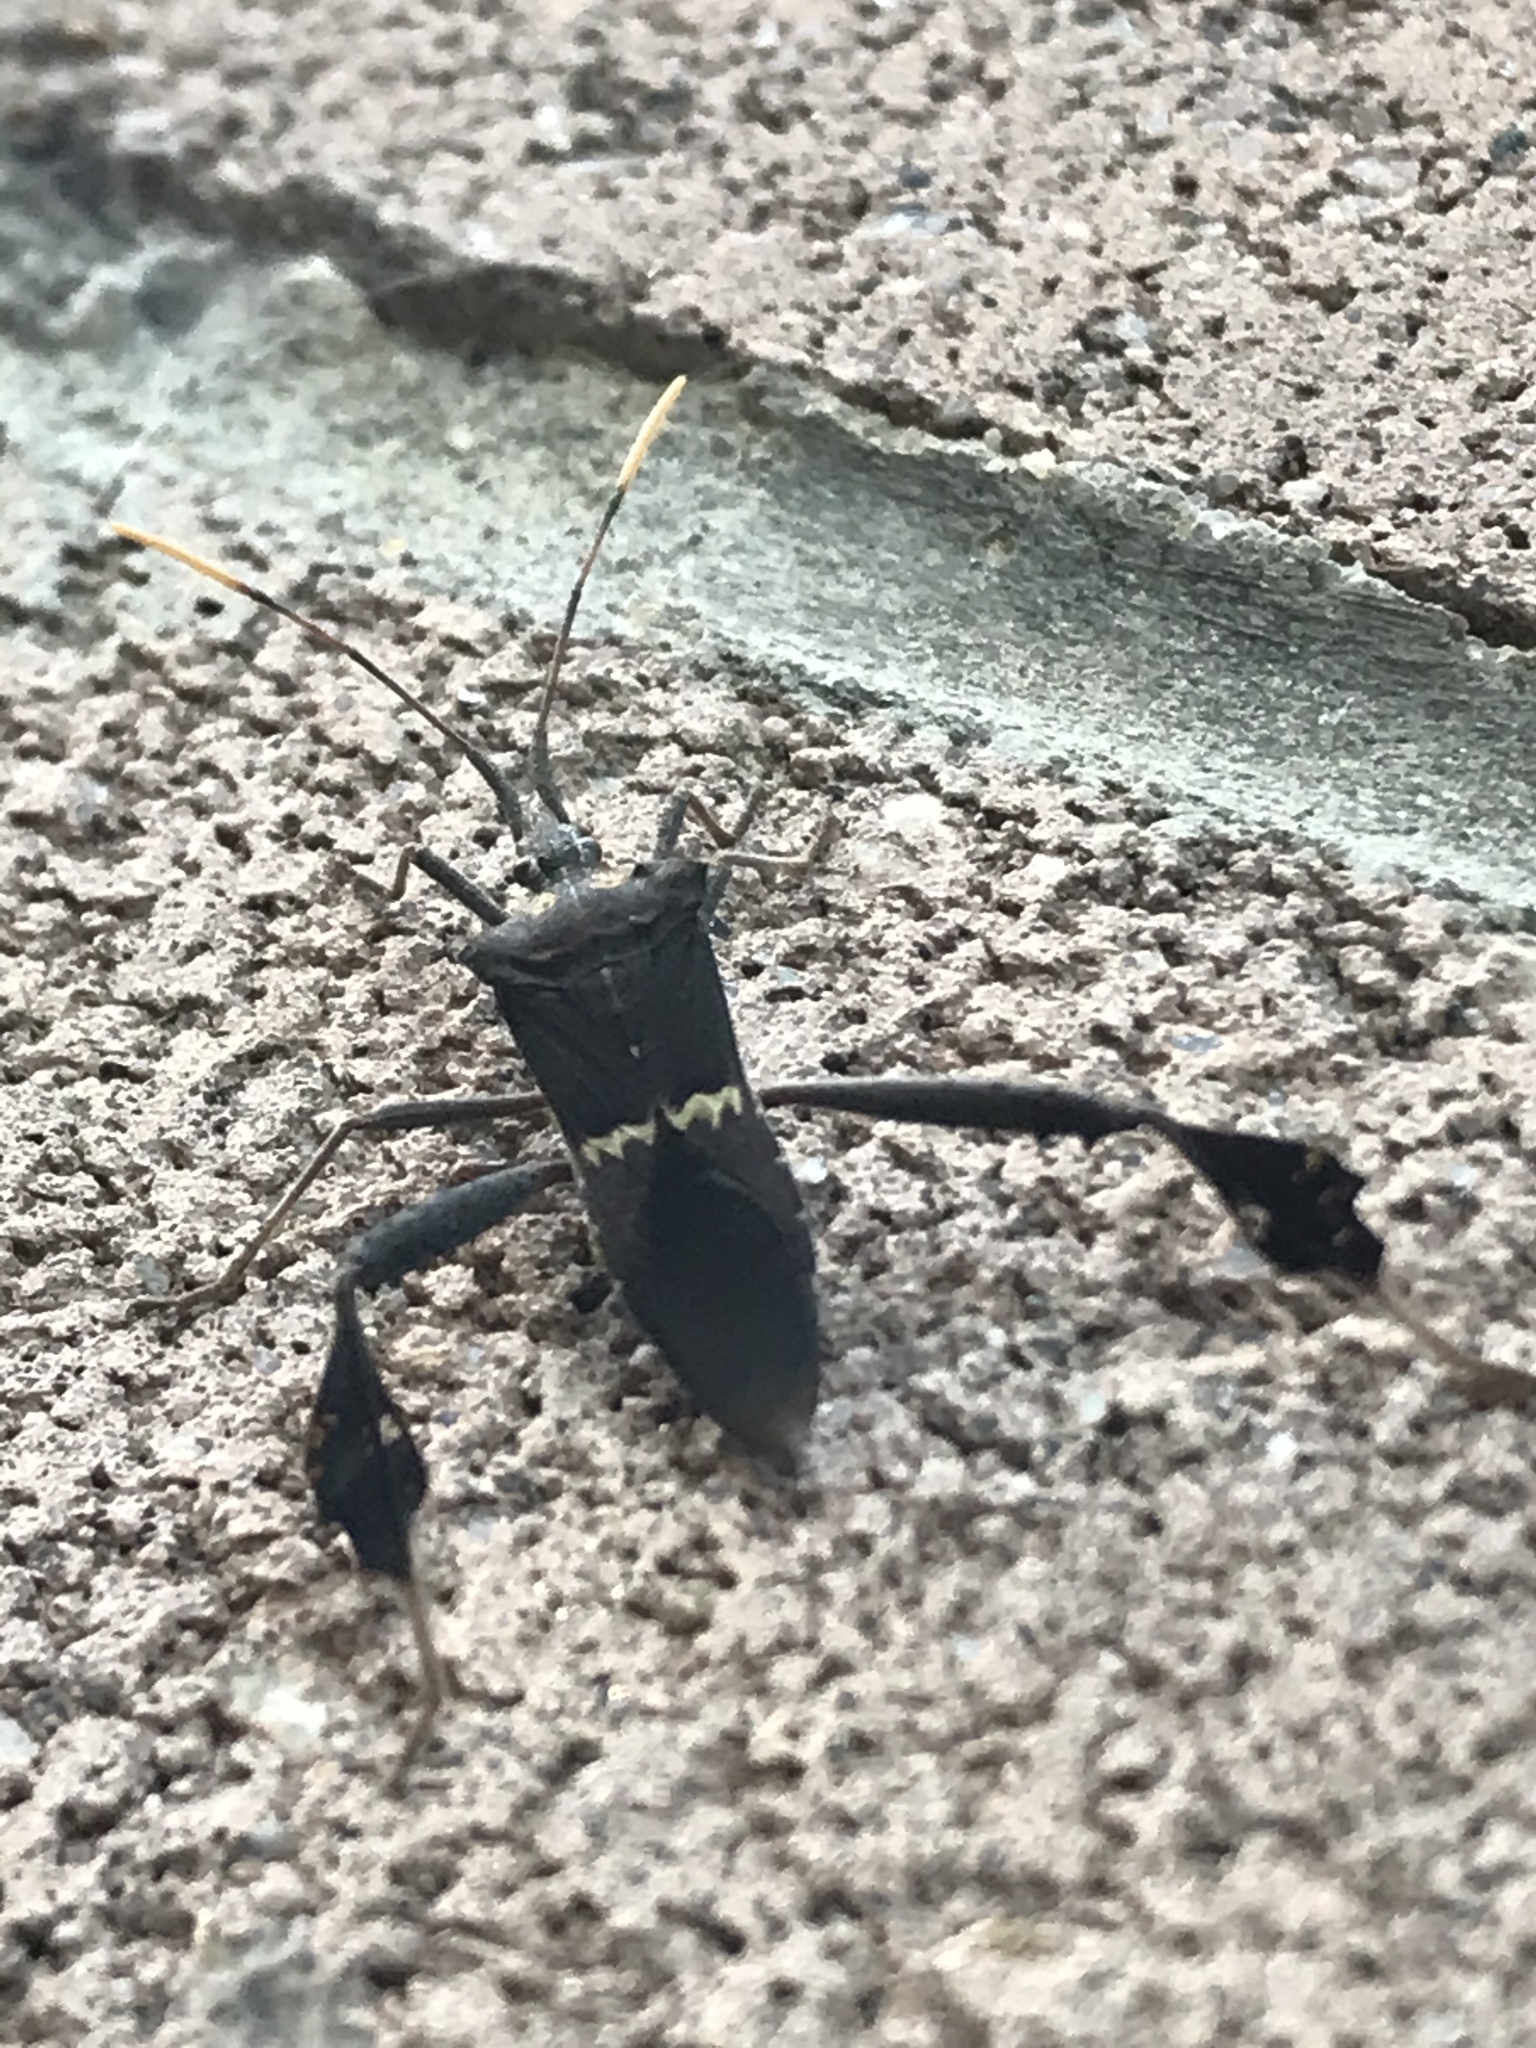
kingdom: Animalia
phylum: Arthropoda
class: Insecta
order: Hemiptera
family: Coreidae
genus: Leptoglossus
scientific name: Leptoglossus zonatus
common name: Large-legged bug
